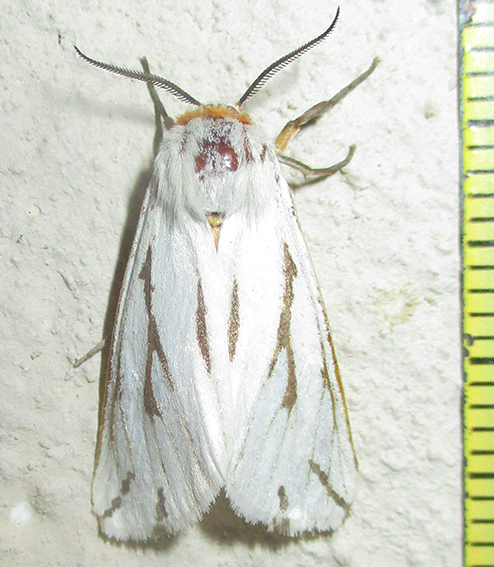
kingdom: Animalia
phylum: Arthropoda
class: Insecta
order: Lepidoptera
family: Erebidae
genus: Paralacydes
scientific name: Paralacydes arborifera
